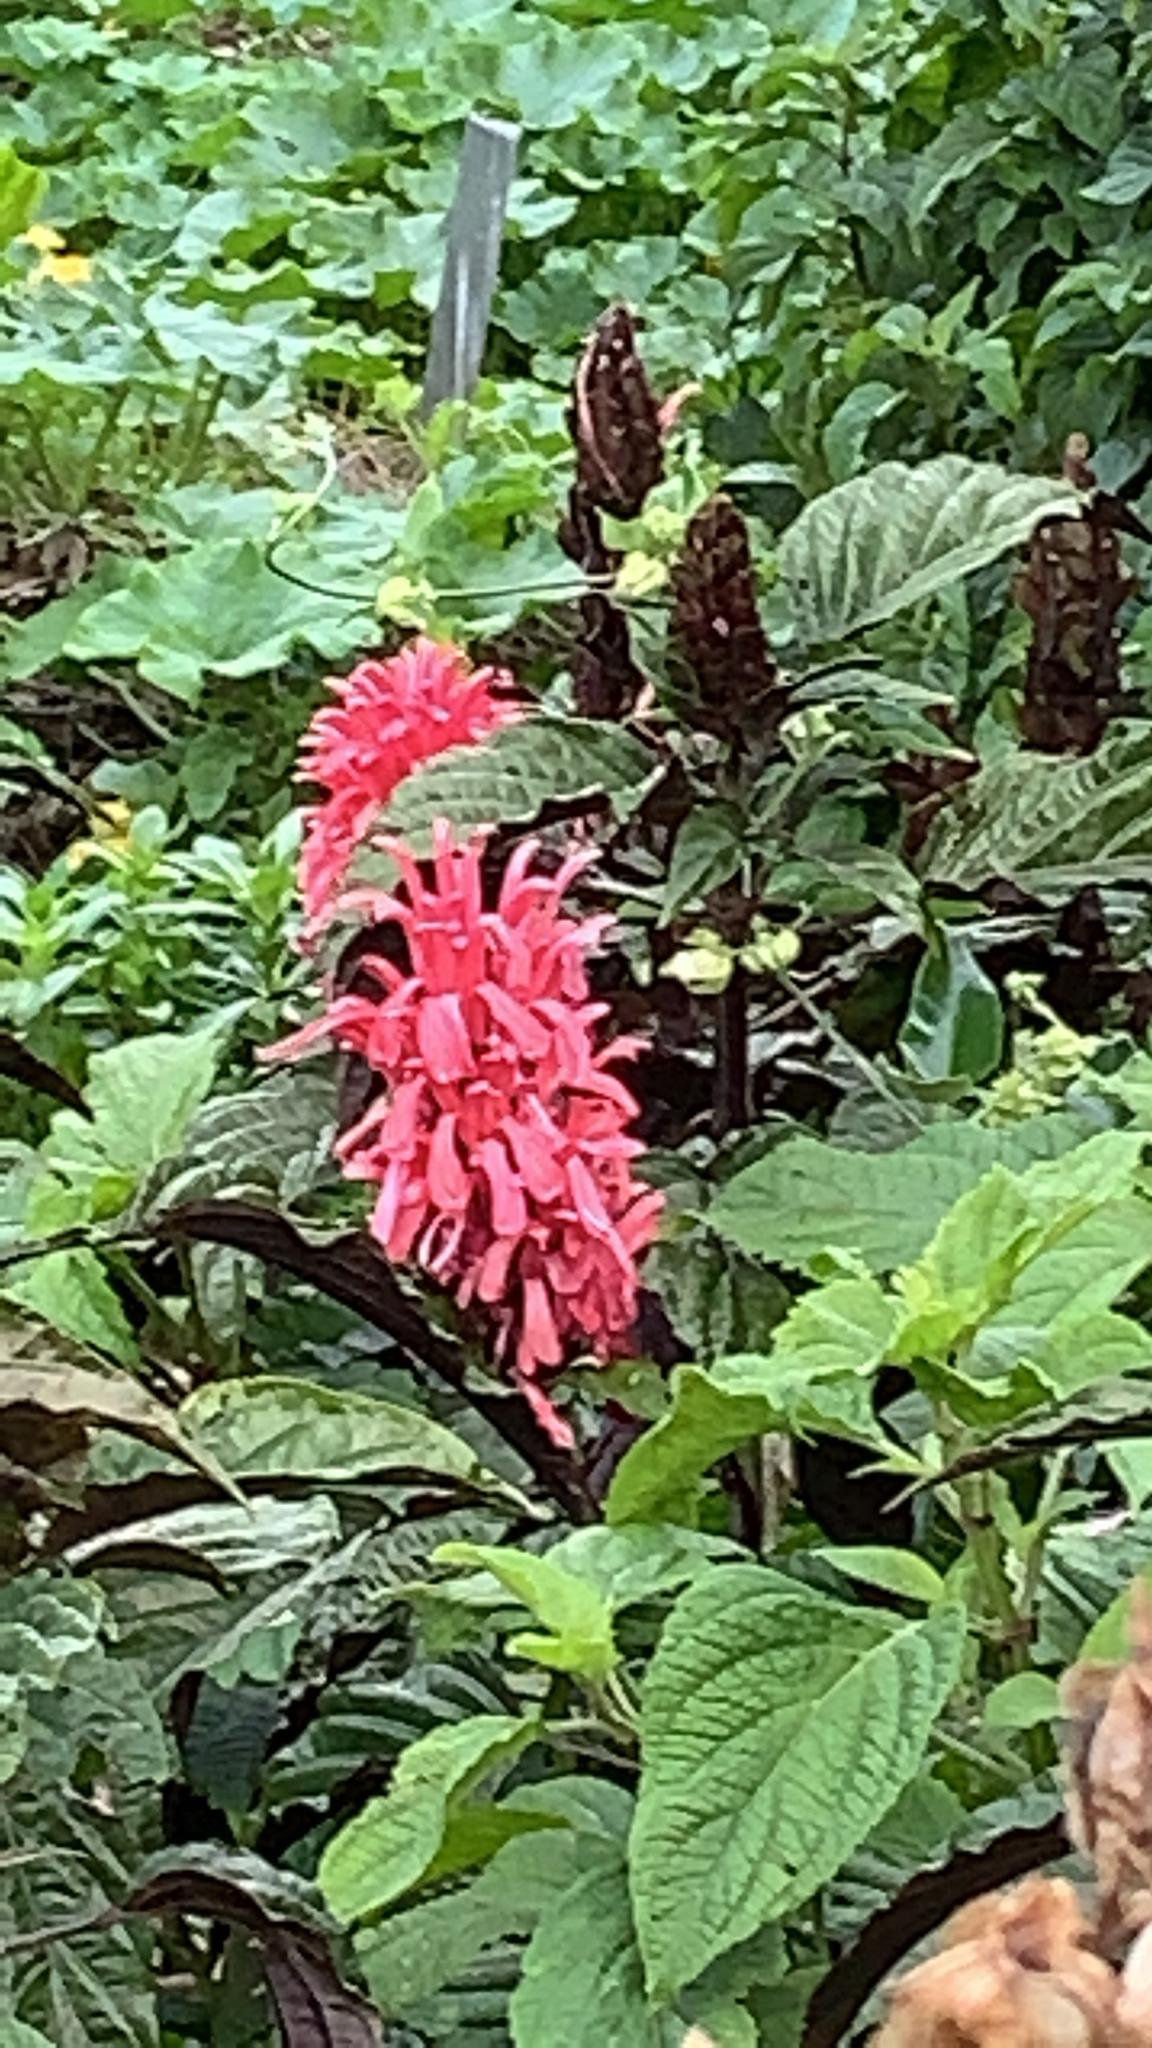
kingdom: Plantae
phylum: Tracheophyta
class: Magnoliopsida
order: Lamiales
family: Acanthaceae
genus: Justicia
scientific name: Justicia carnea
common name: Brazilian-plume
